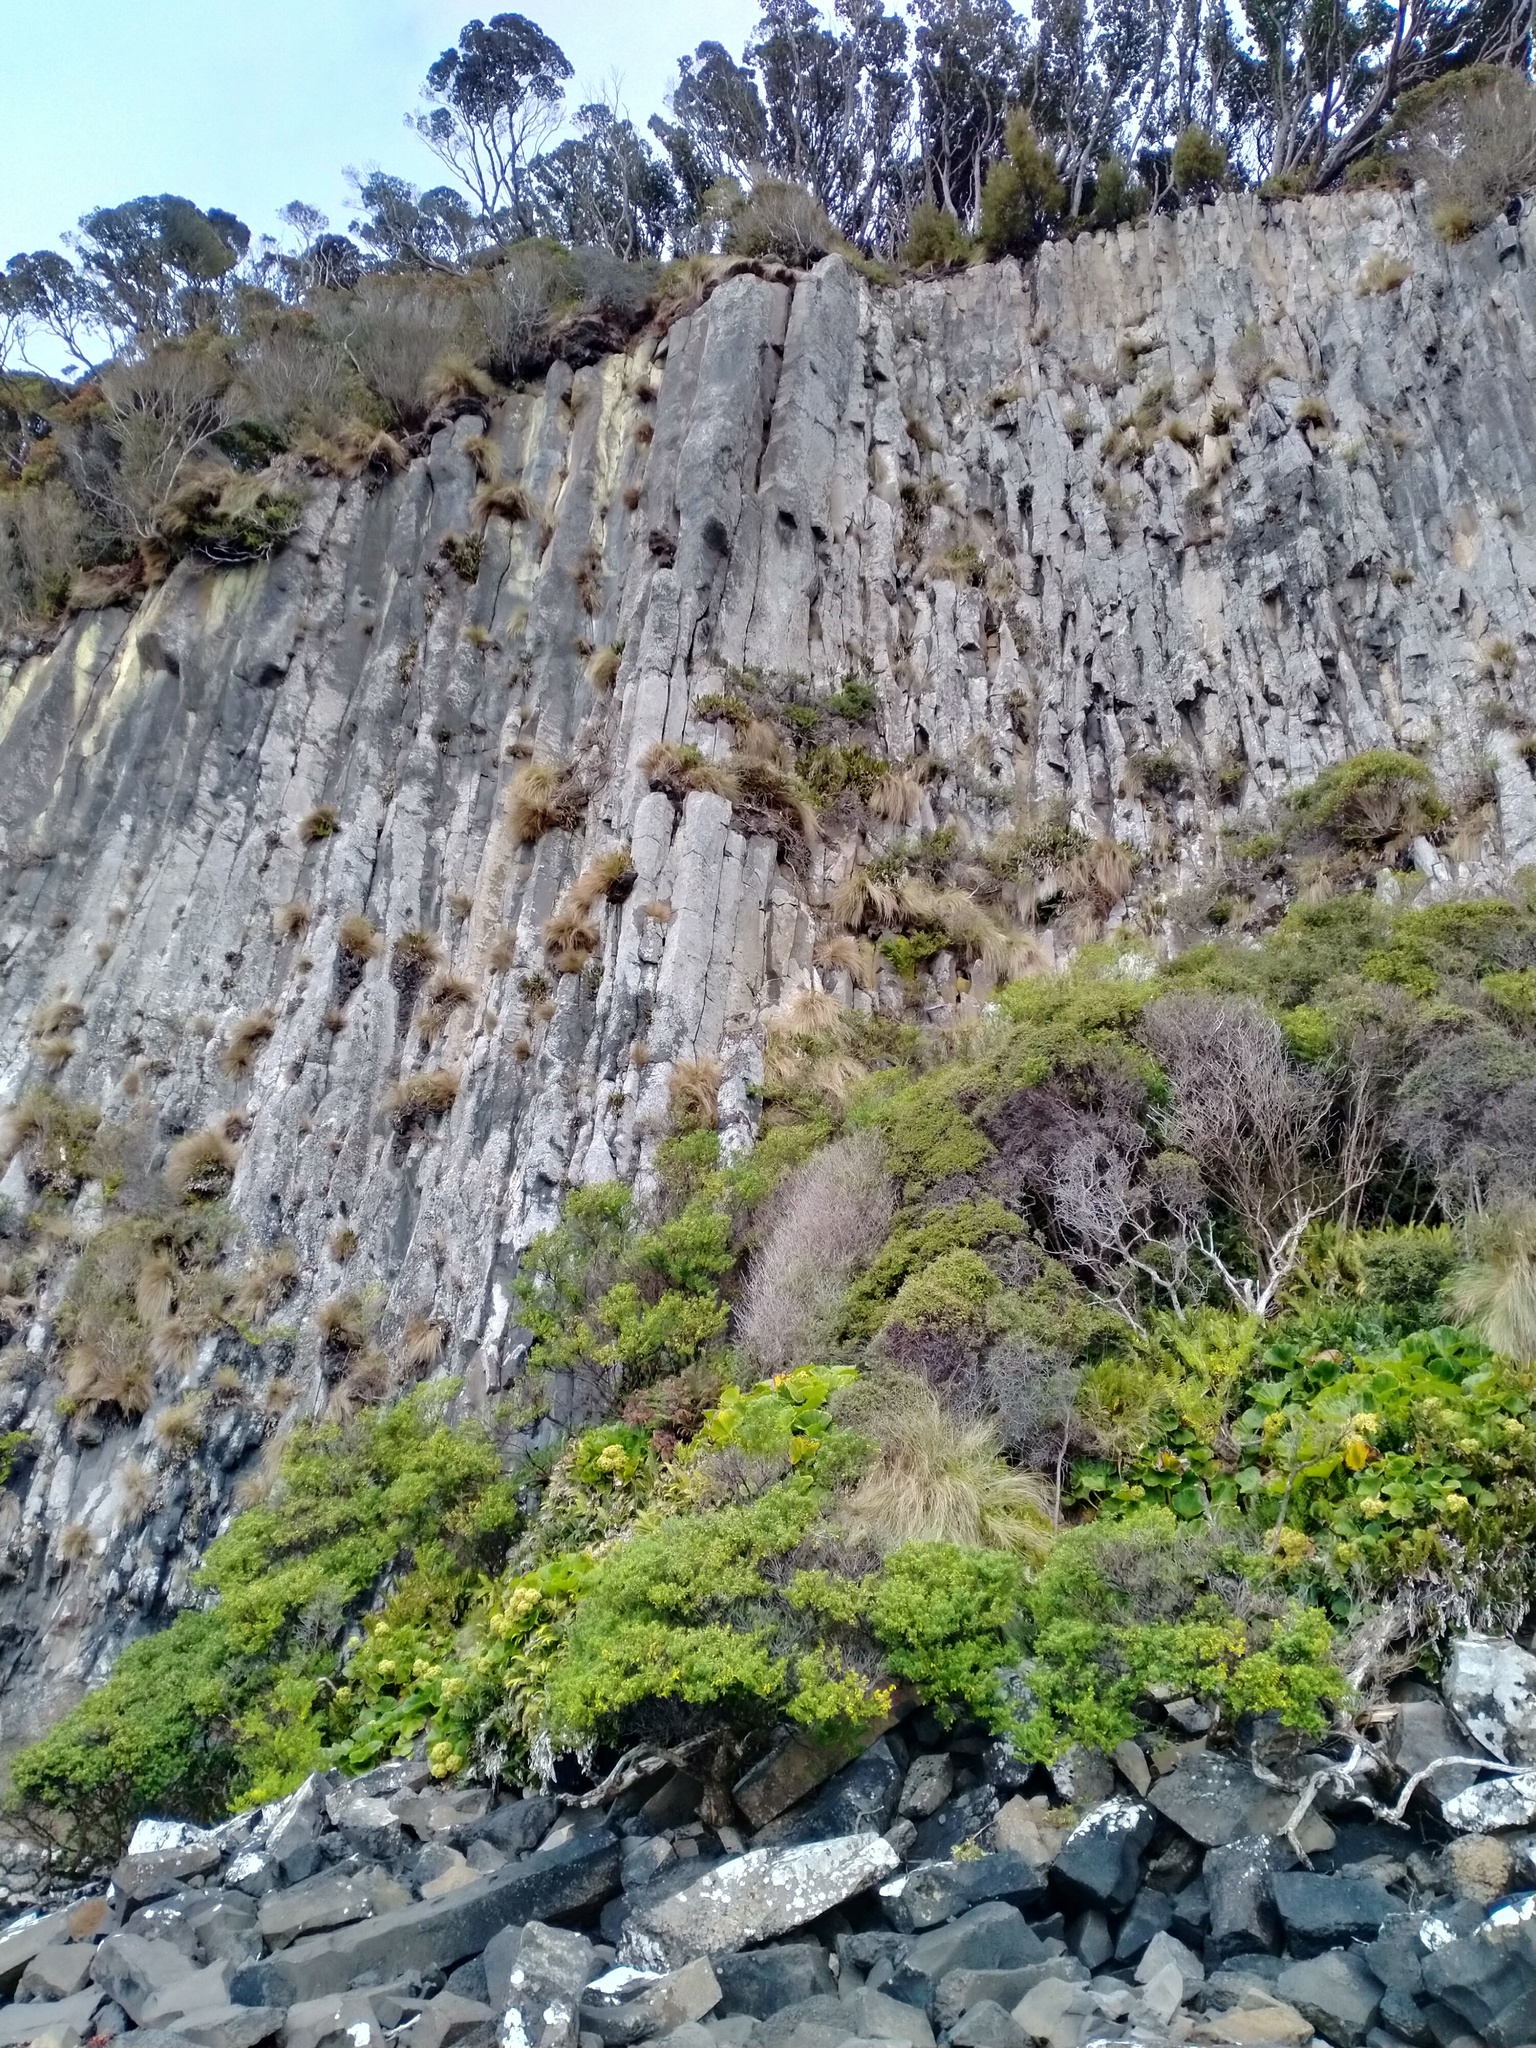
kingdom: Plantae
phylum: Tracheophyta
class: Magnoliopsida
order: Apiales
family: Apiaceae
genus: Azorella
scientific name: Azorella polaris
